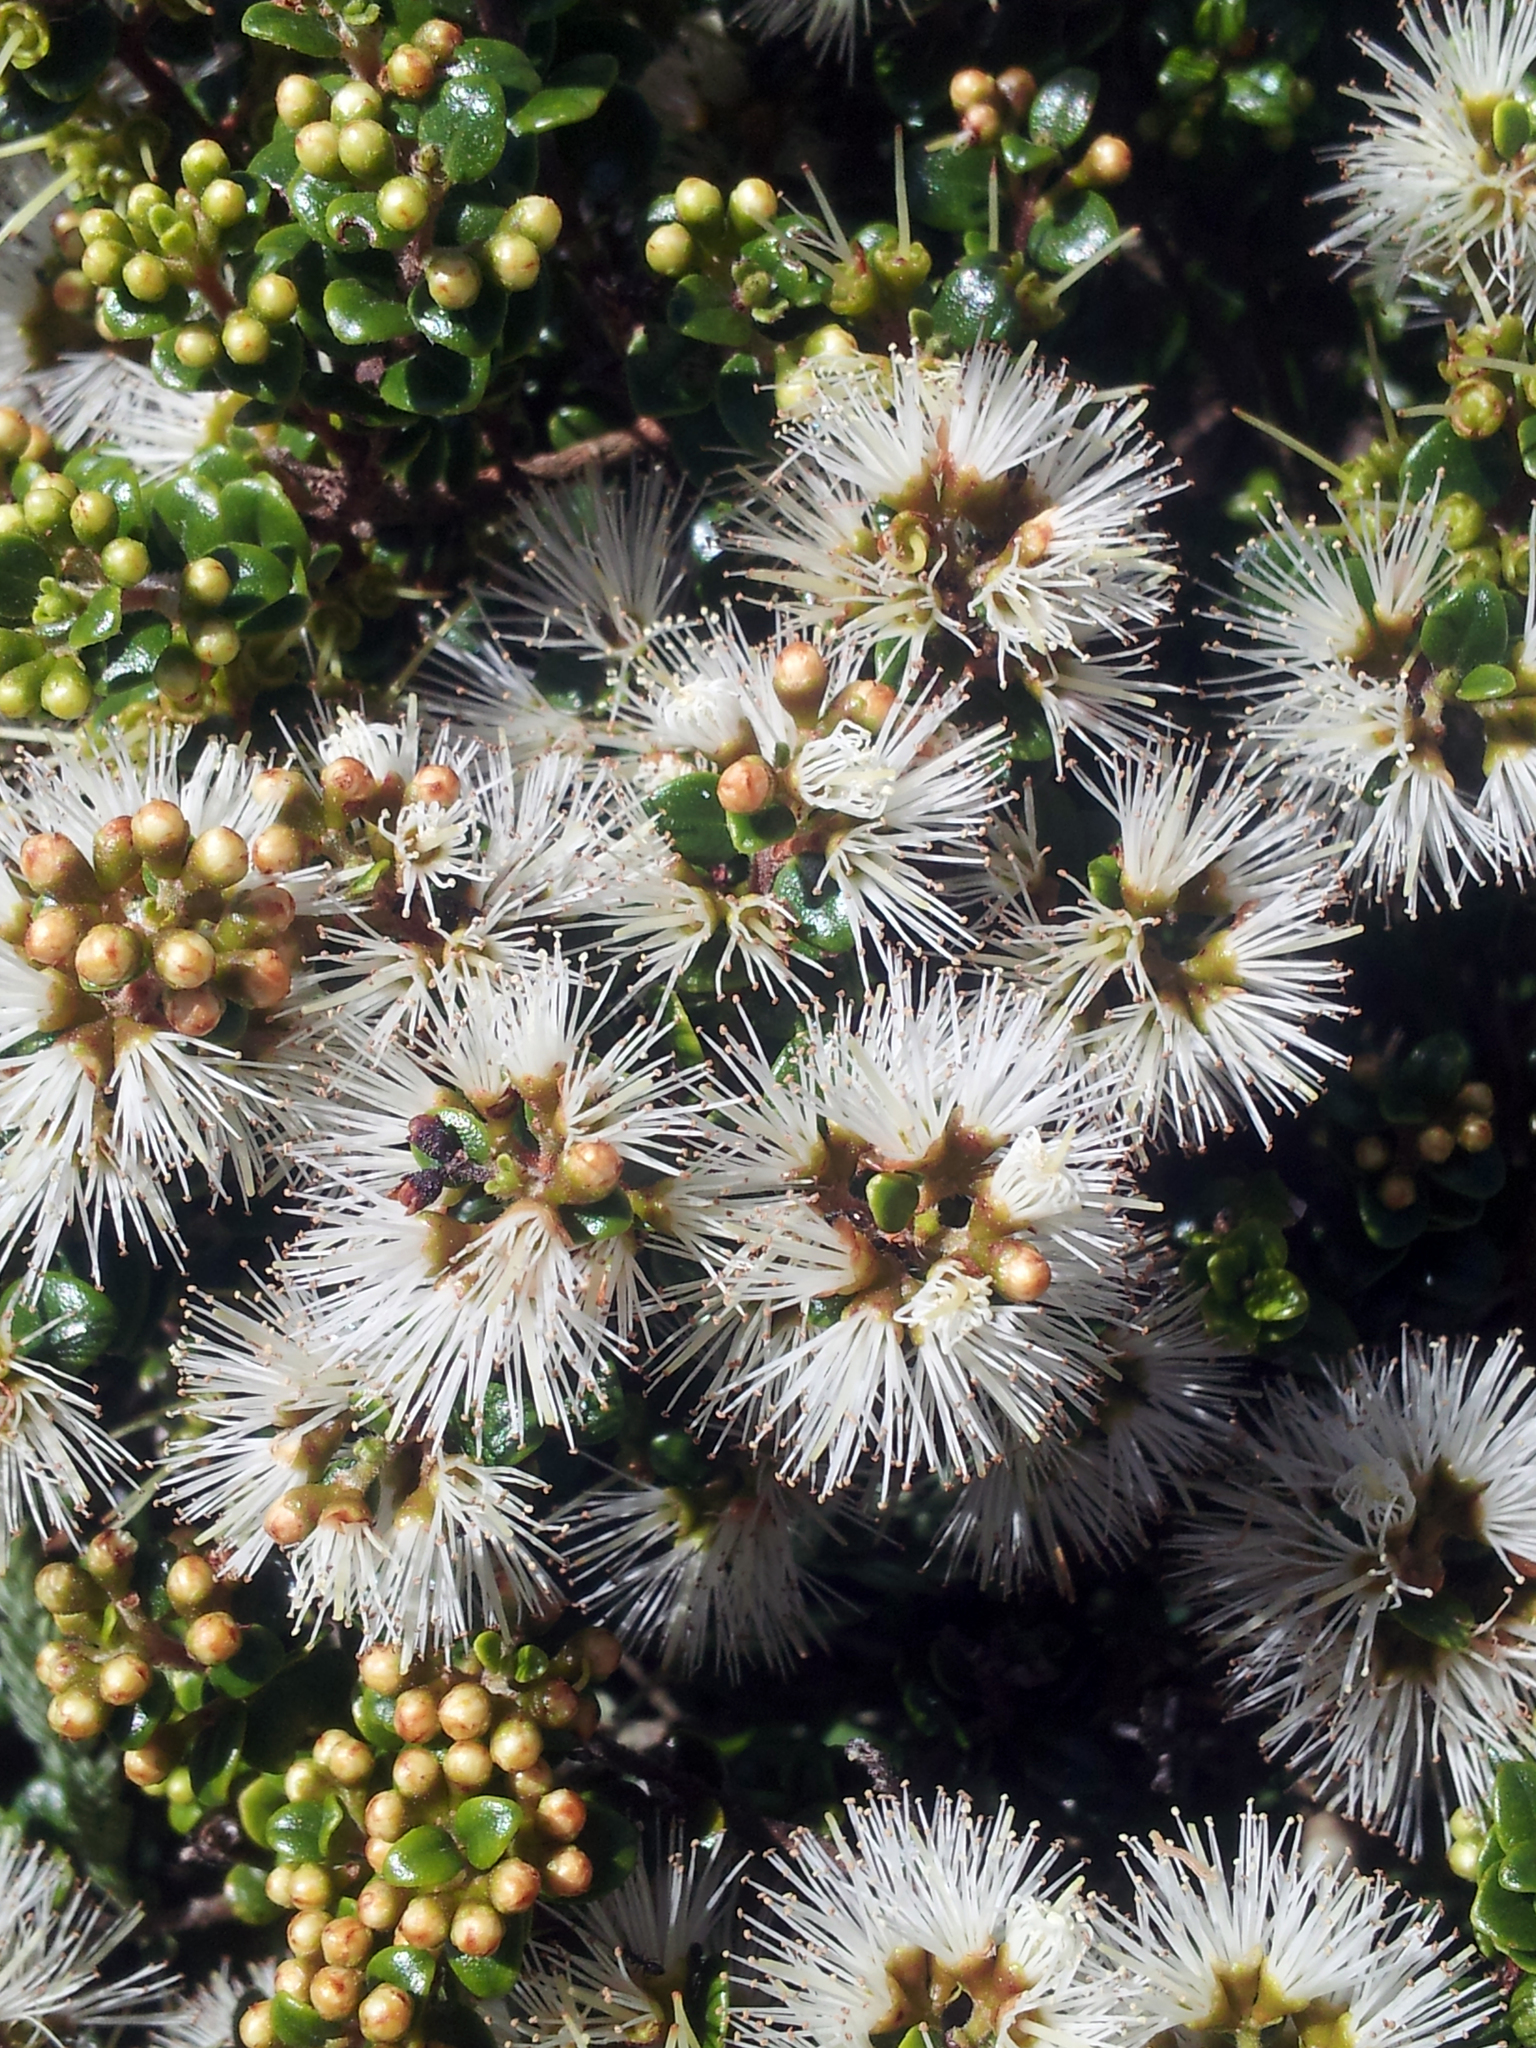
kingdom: Plantae
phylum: Tracheophyta
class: Magnoliopsida
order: Myrtales
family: Myrtaceae
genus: Metrosideros
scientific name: Metrosideros perforata
